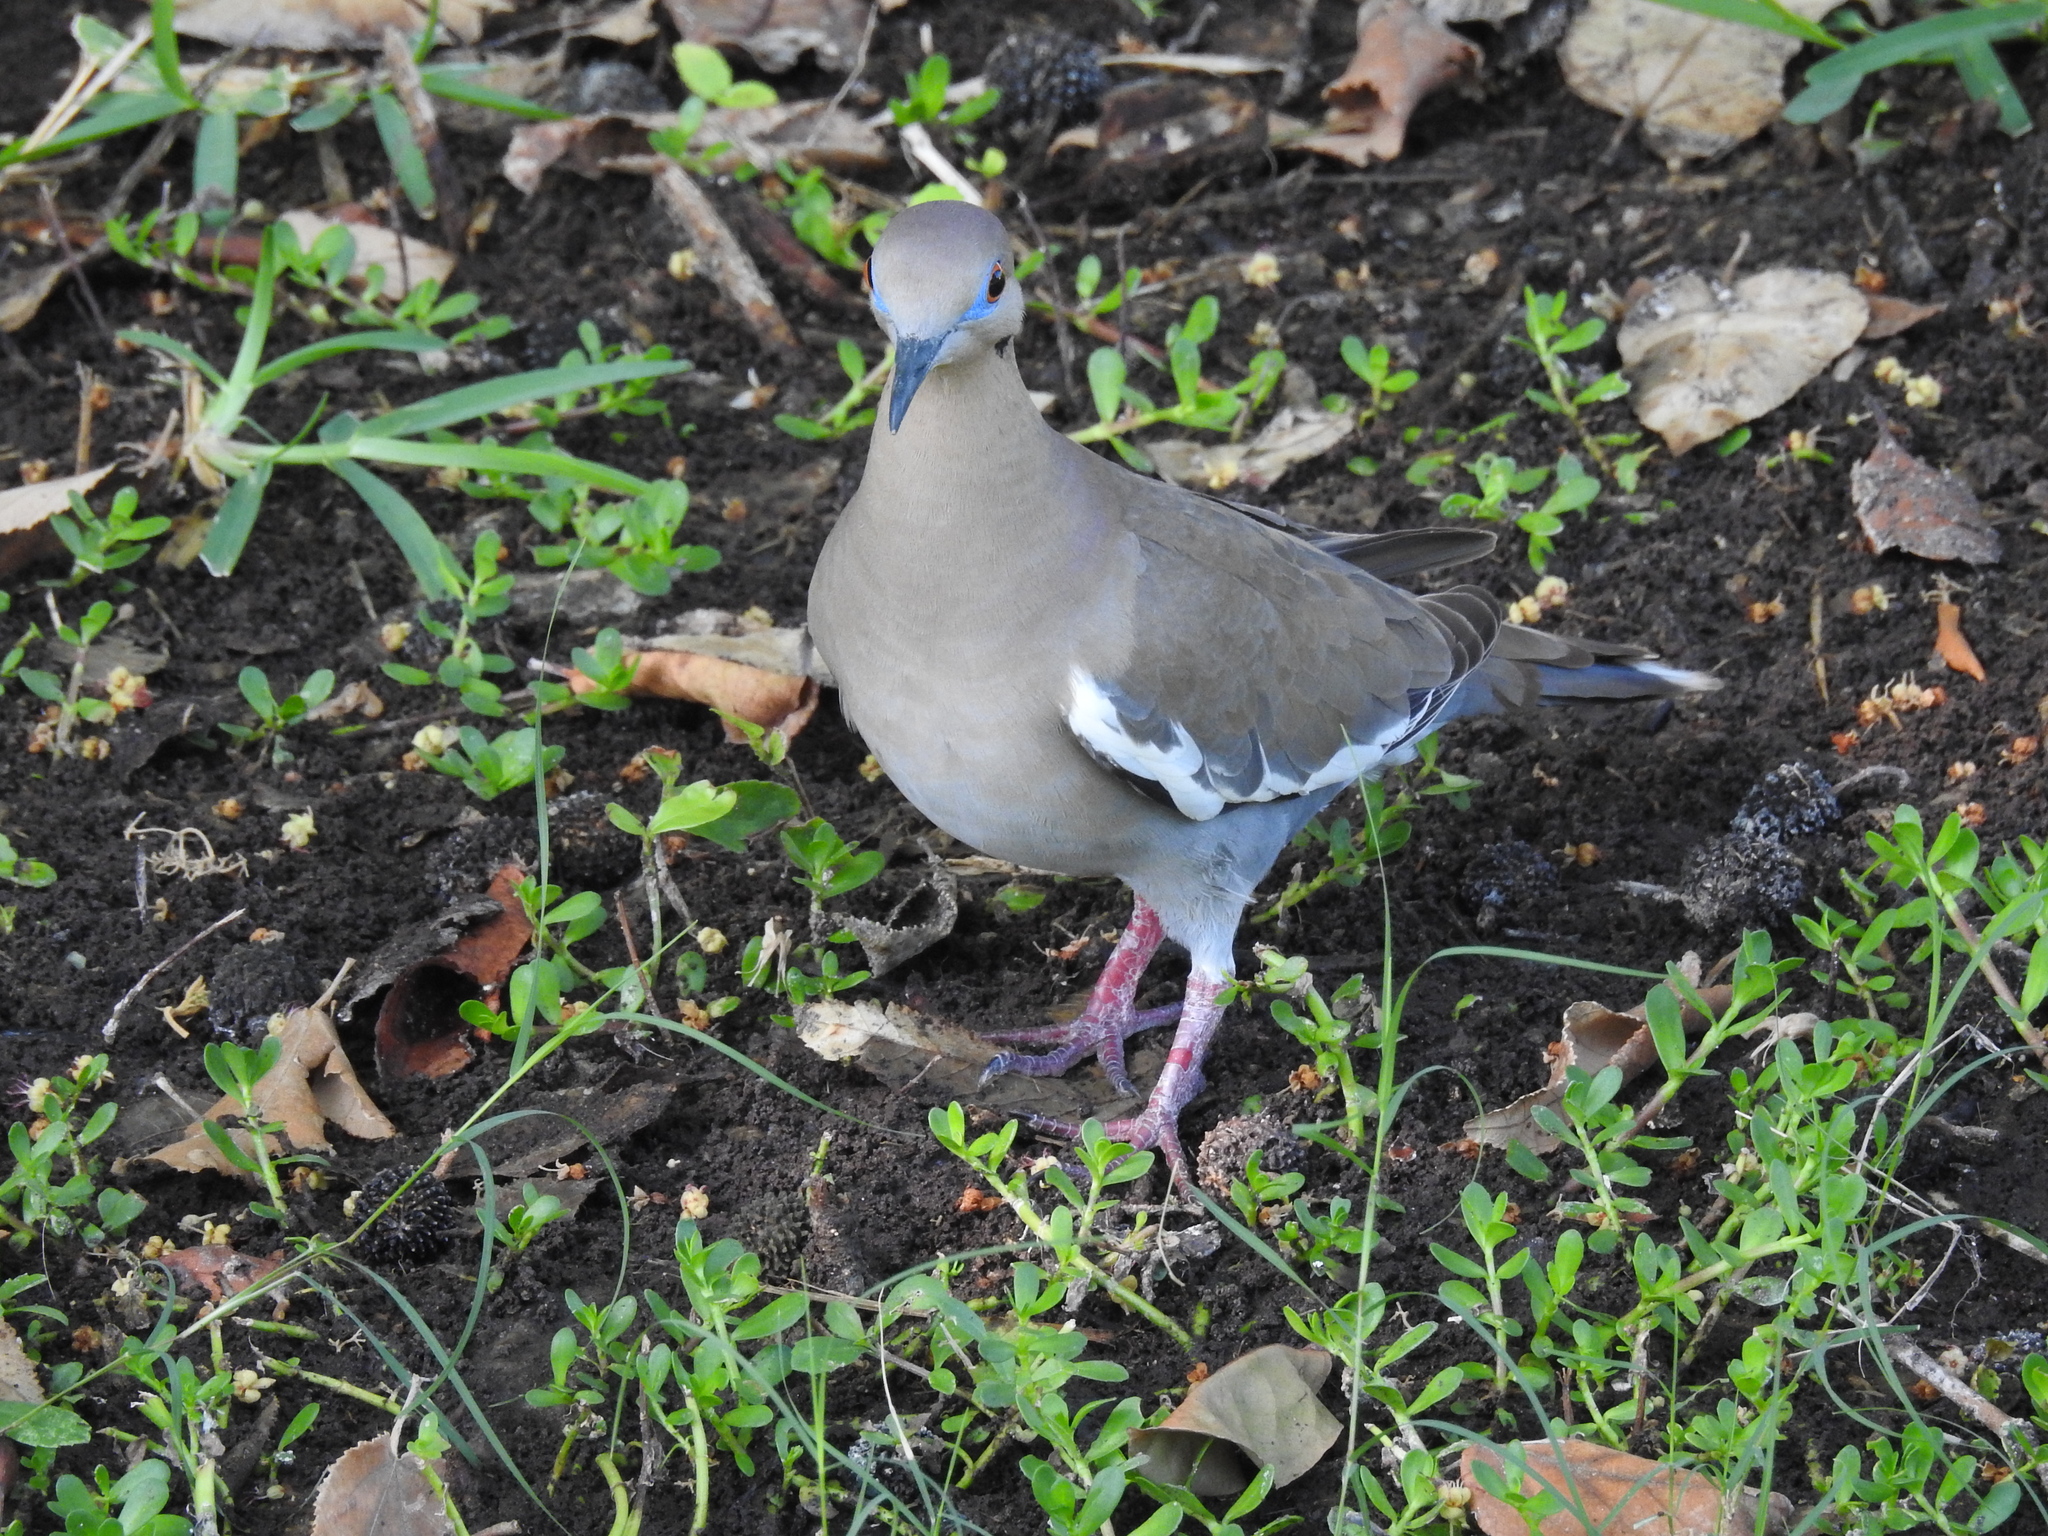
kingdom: Animalia
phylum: Chordata
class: Aves
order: Columbiformes
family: Columbidae
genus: Zenaida
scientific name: Zenaida asiatica
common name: White-winged dove
